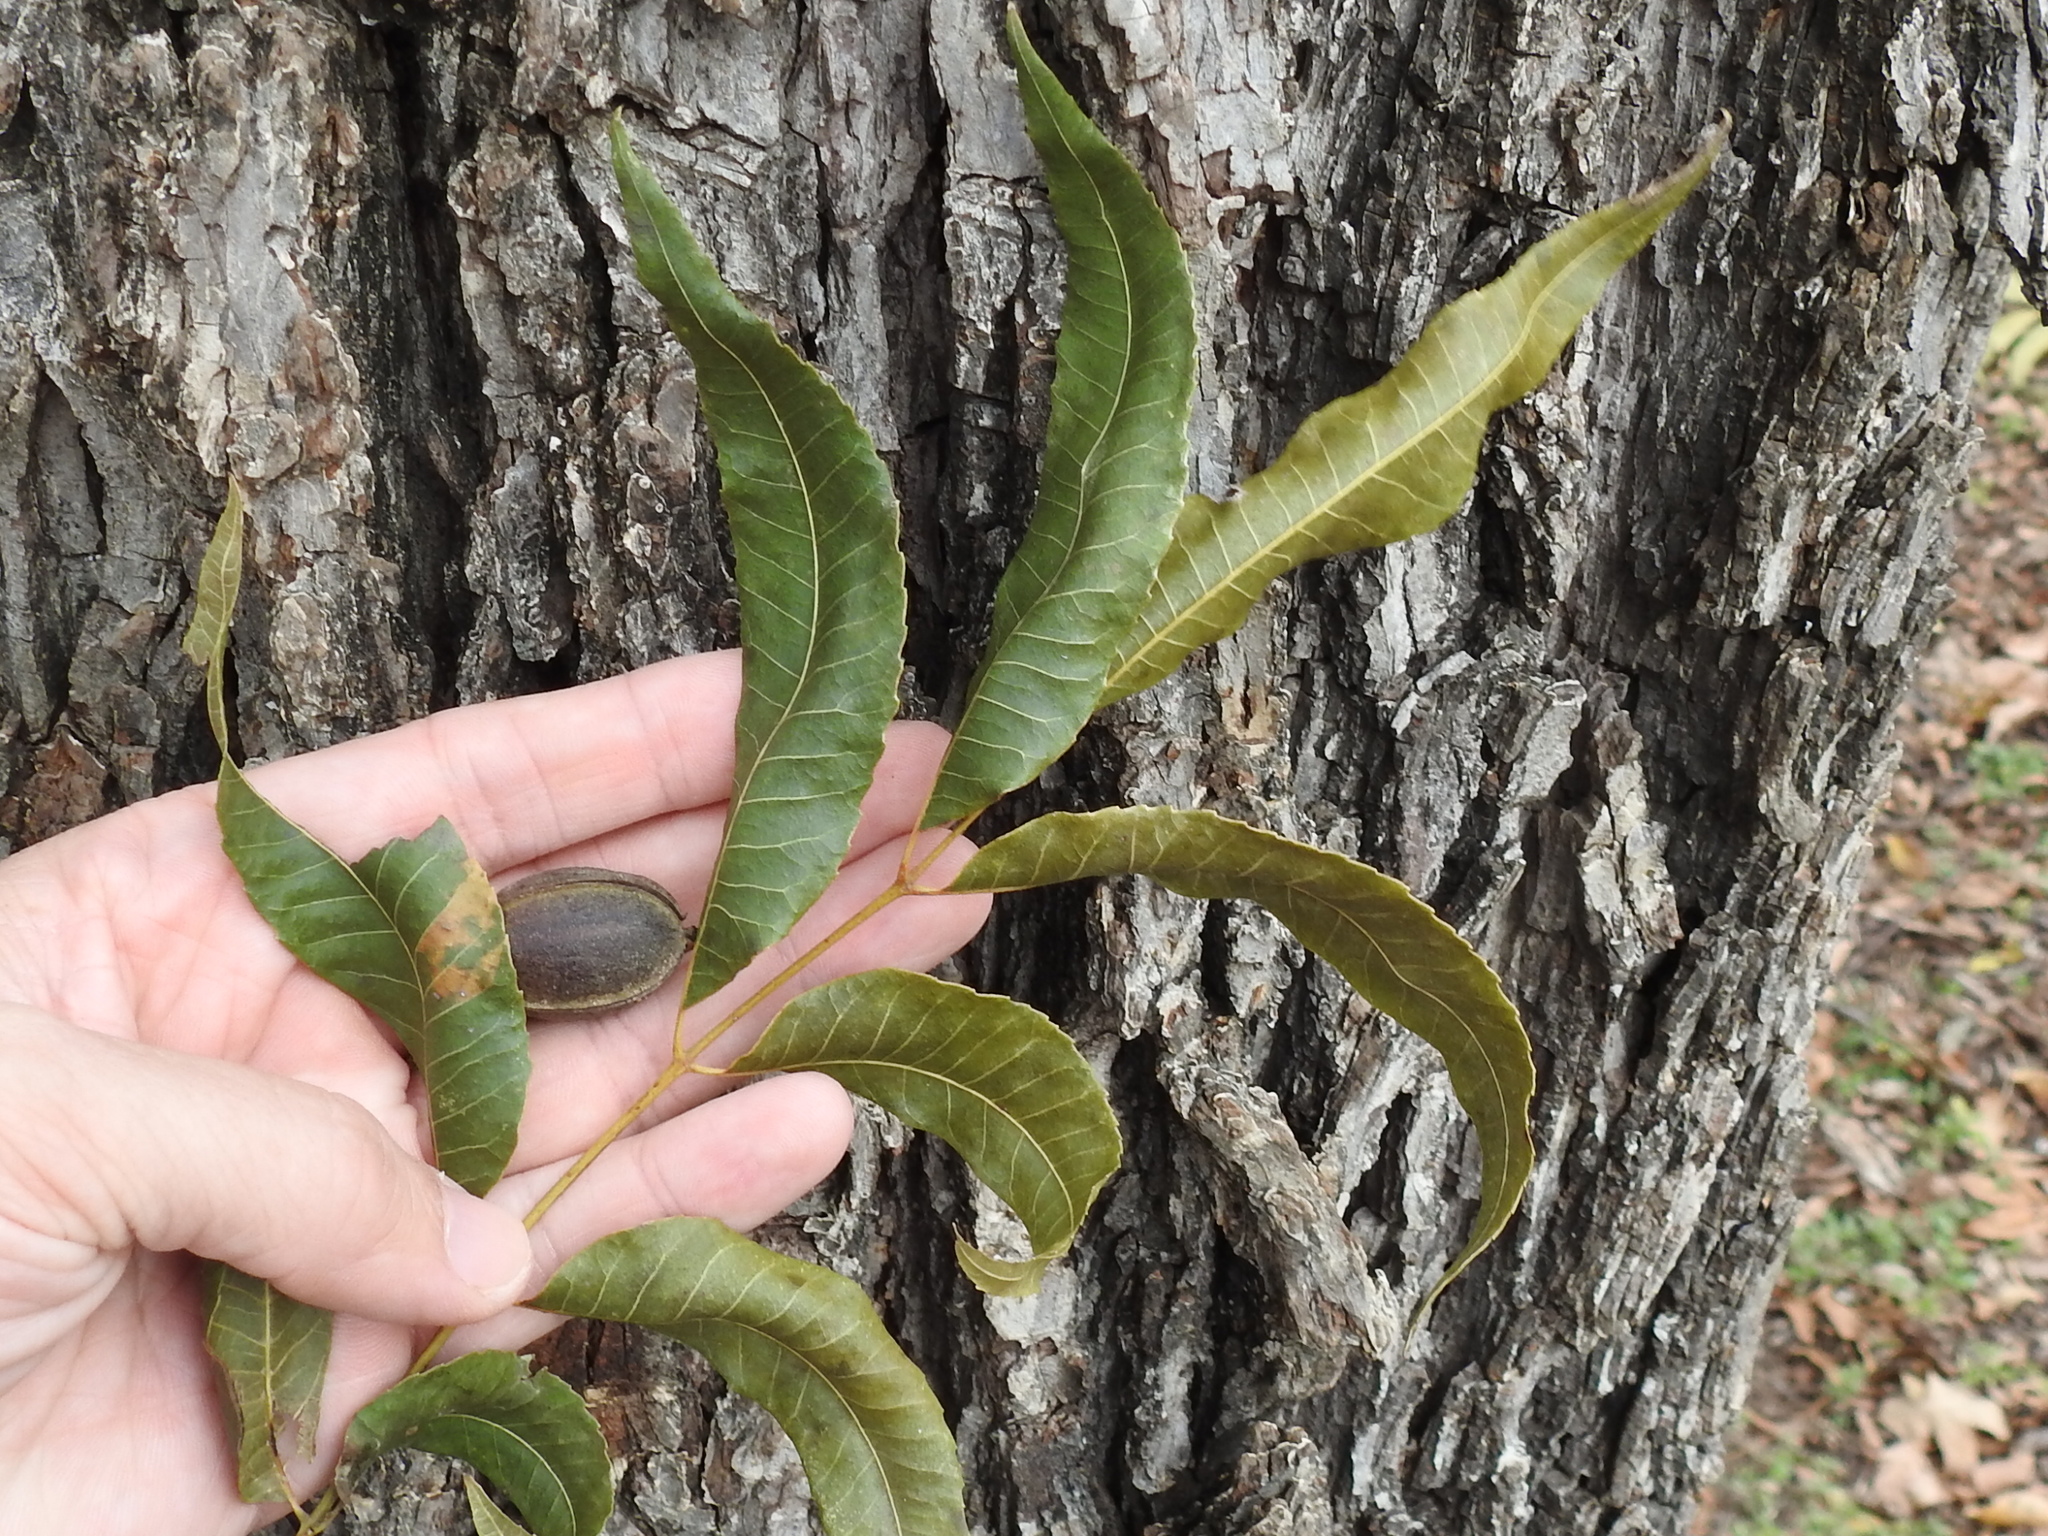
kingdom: Plantae
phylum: Tracheophyta
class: Magnoliopsida
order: Fagales
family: Juglandaceae
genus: Carya
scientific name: Carya illinoinensis
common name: Pecan
